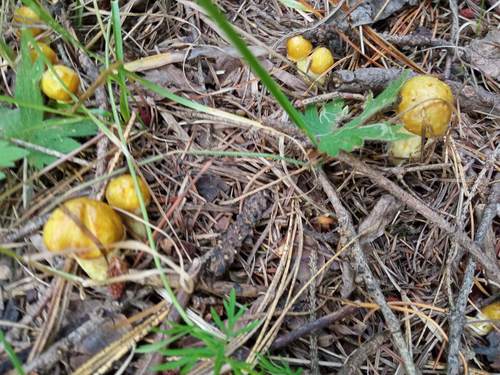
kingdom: Fungi
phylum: Basidiomycota
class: Agaricomycetes
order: Boletales
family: Suillaceae
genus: Suillus
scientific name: Suillus americanus
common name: Chicken fat mushroom
